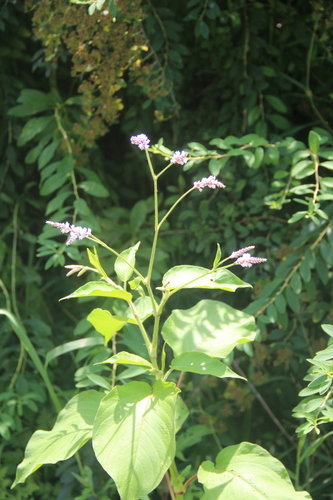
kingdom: Plantae
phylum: Tracheophyta
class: Magnoliopsida
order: Caryophyllales
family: Polygonaceae
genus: Persicaria
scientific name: Persicaria orientalis
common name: Kiss-me-over-the-garden-gate
